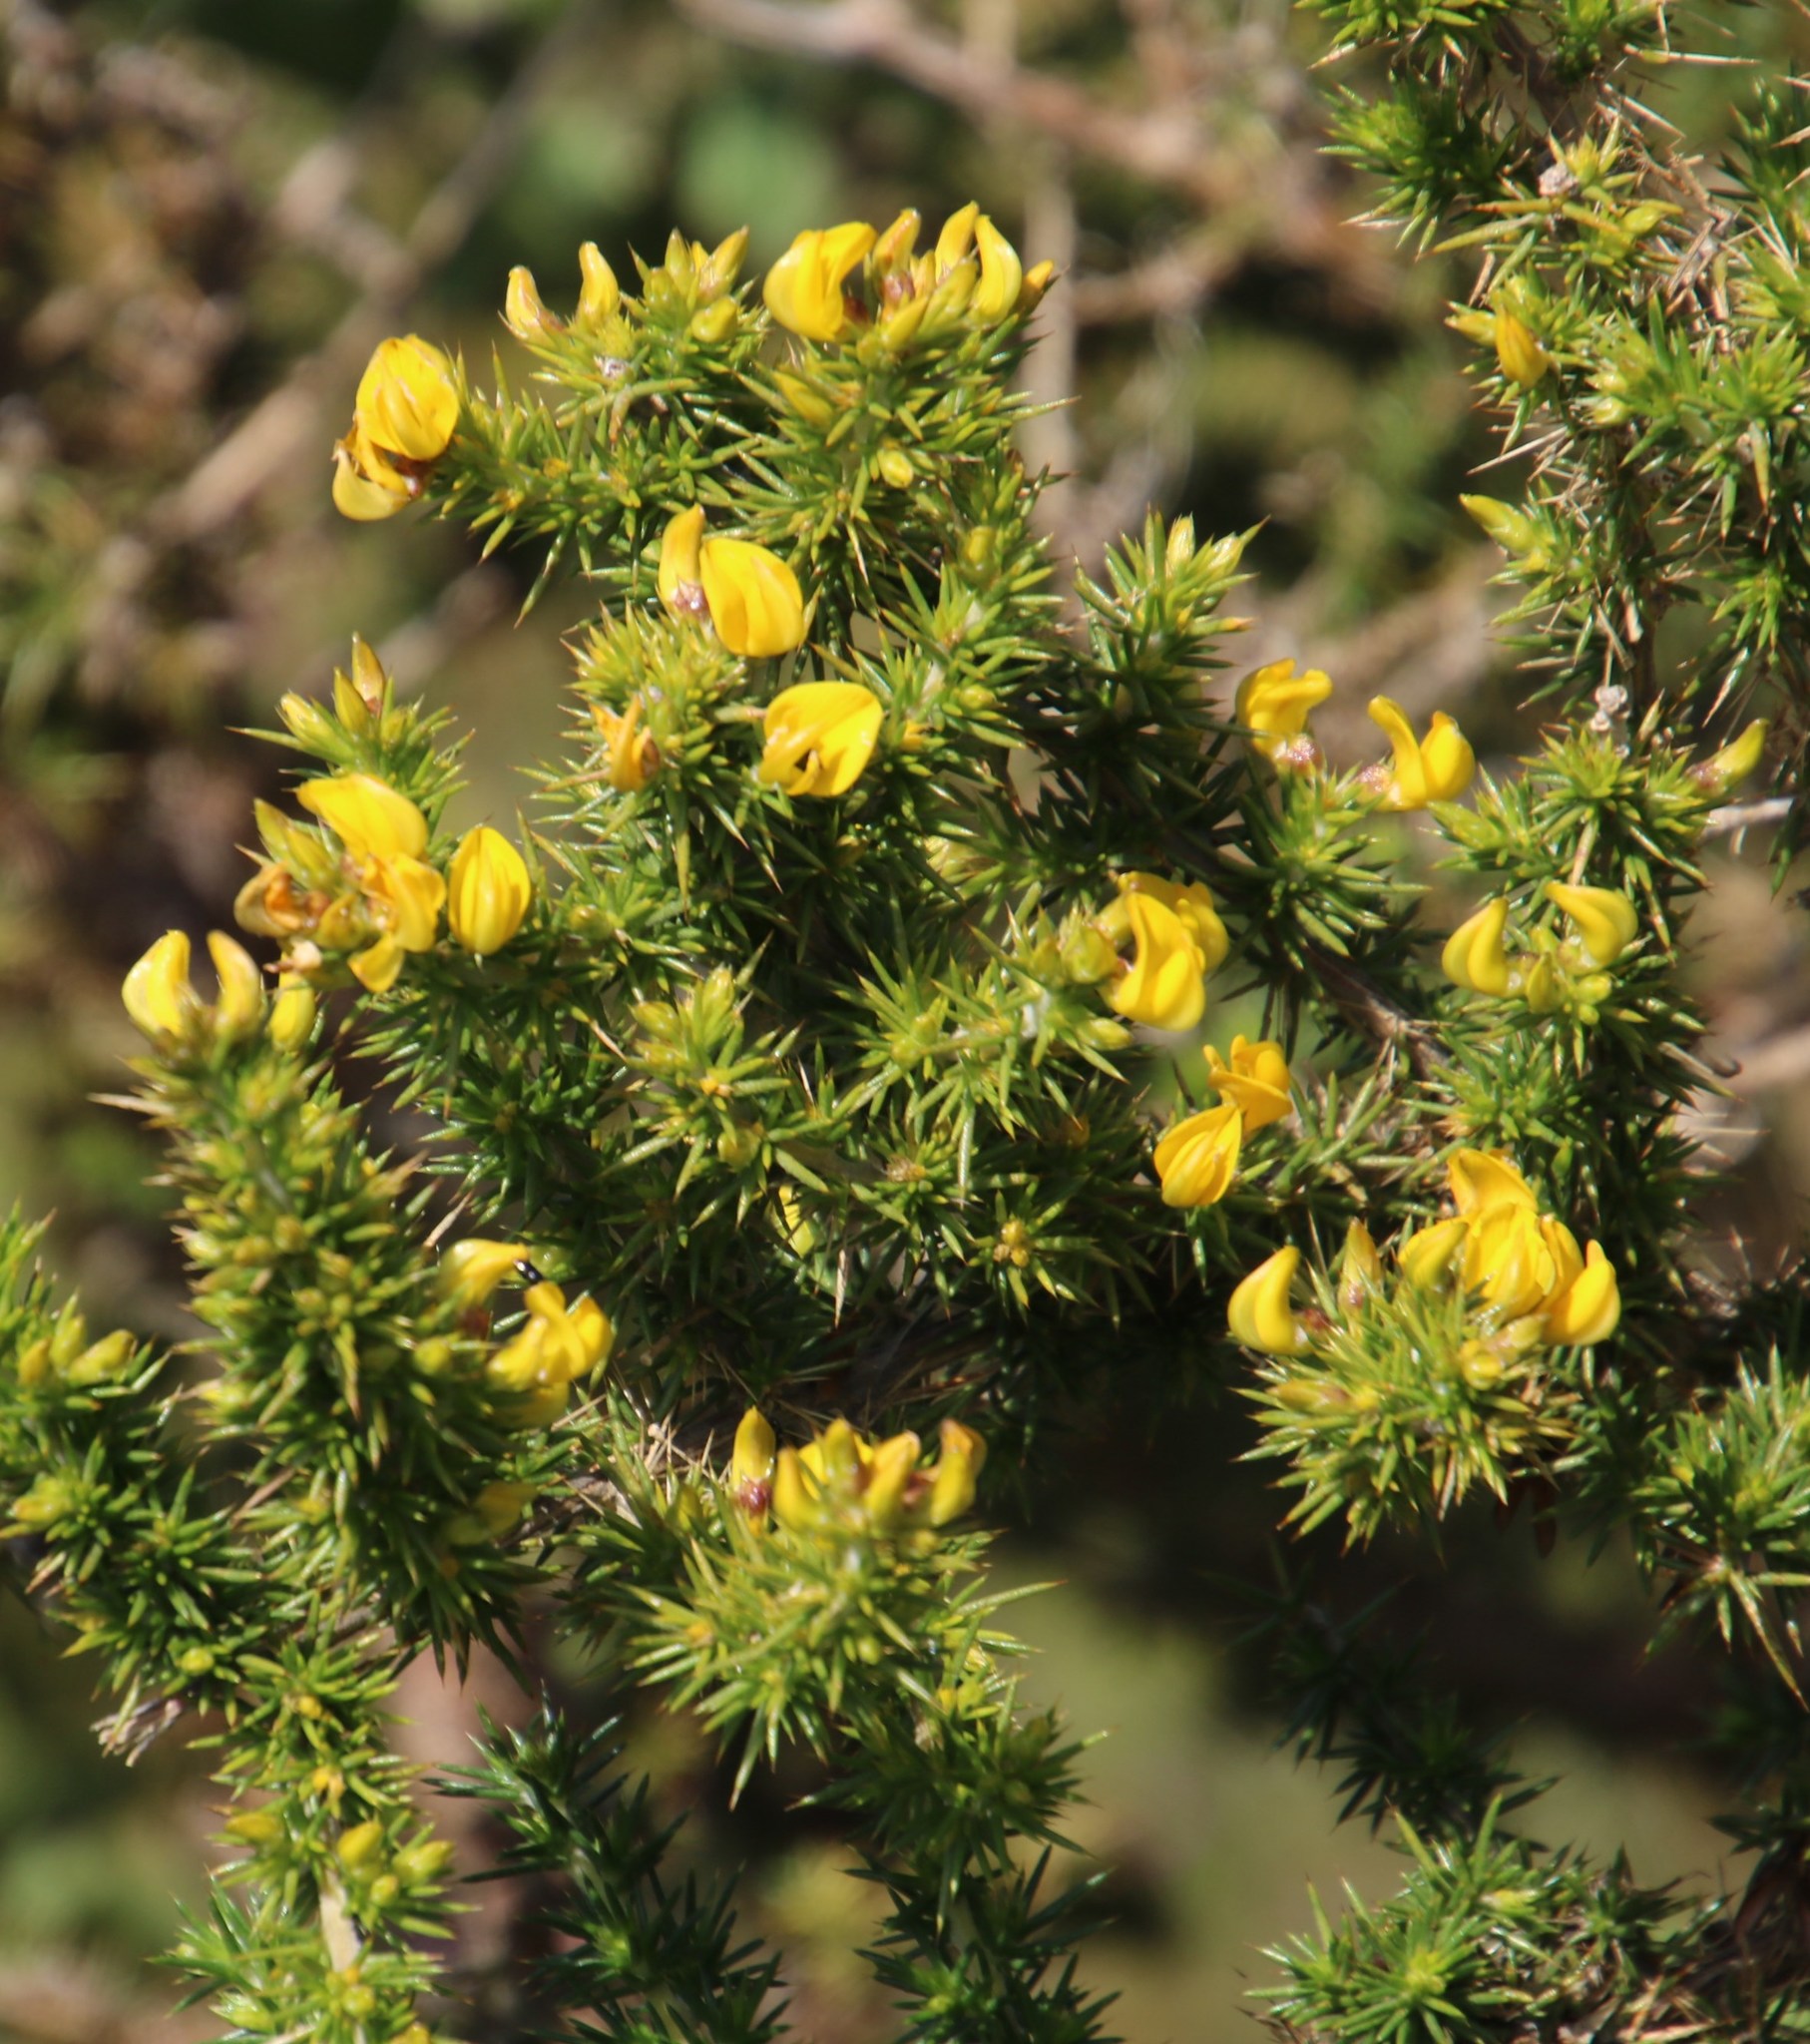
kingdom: Plantae
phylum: Tracheophyta
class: Magnoliopsida
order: Fabales
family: Fabaceae
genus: Aspalathus
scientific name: Aspalathus astroites
